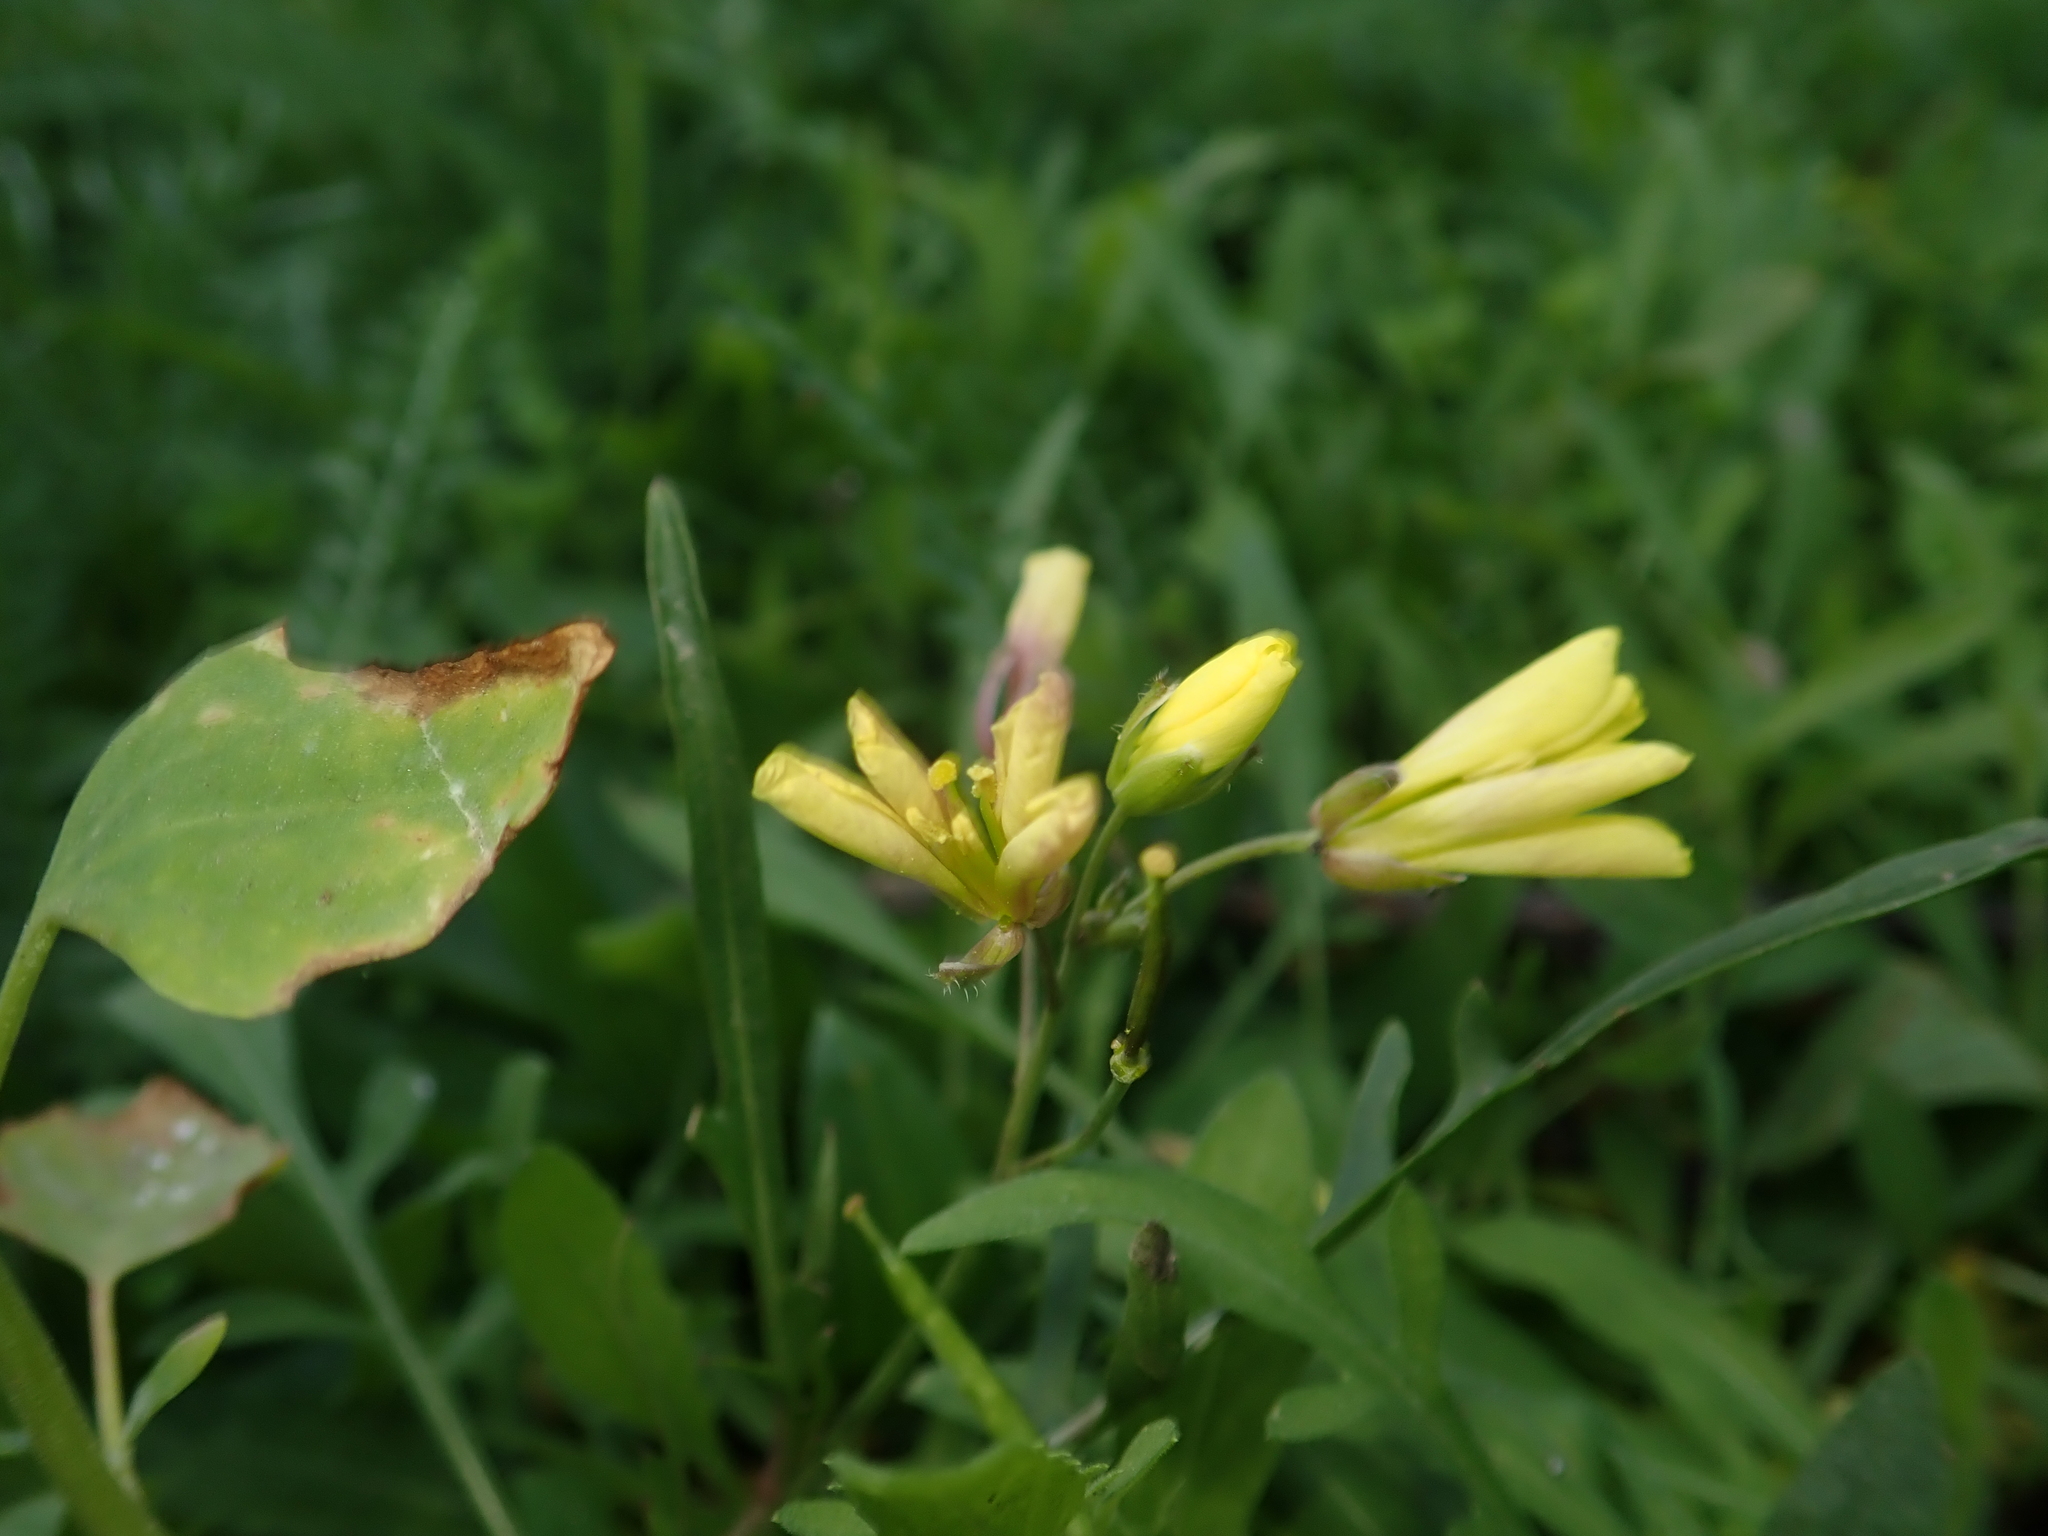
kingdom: Plantae
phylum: Tracheophyta
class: Magnoliopsida
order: Brassicales
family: Brassicaceae
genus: Diplotaxis
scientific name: Diplotaxis tenuifolia
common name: Perennial wall-rocket
